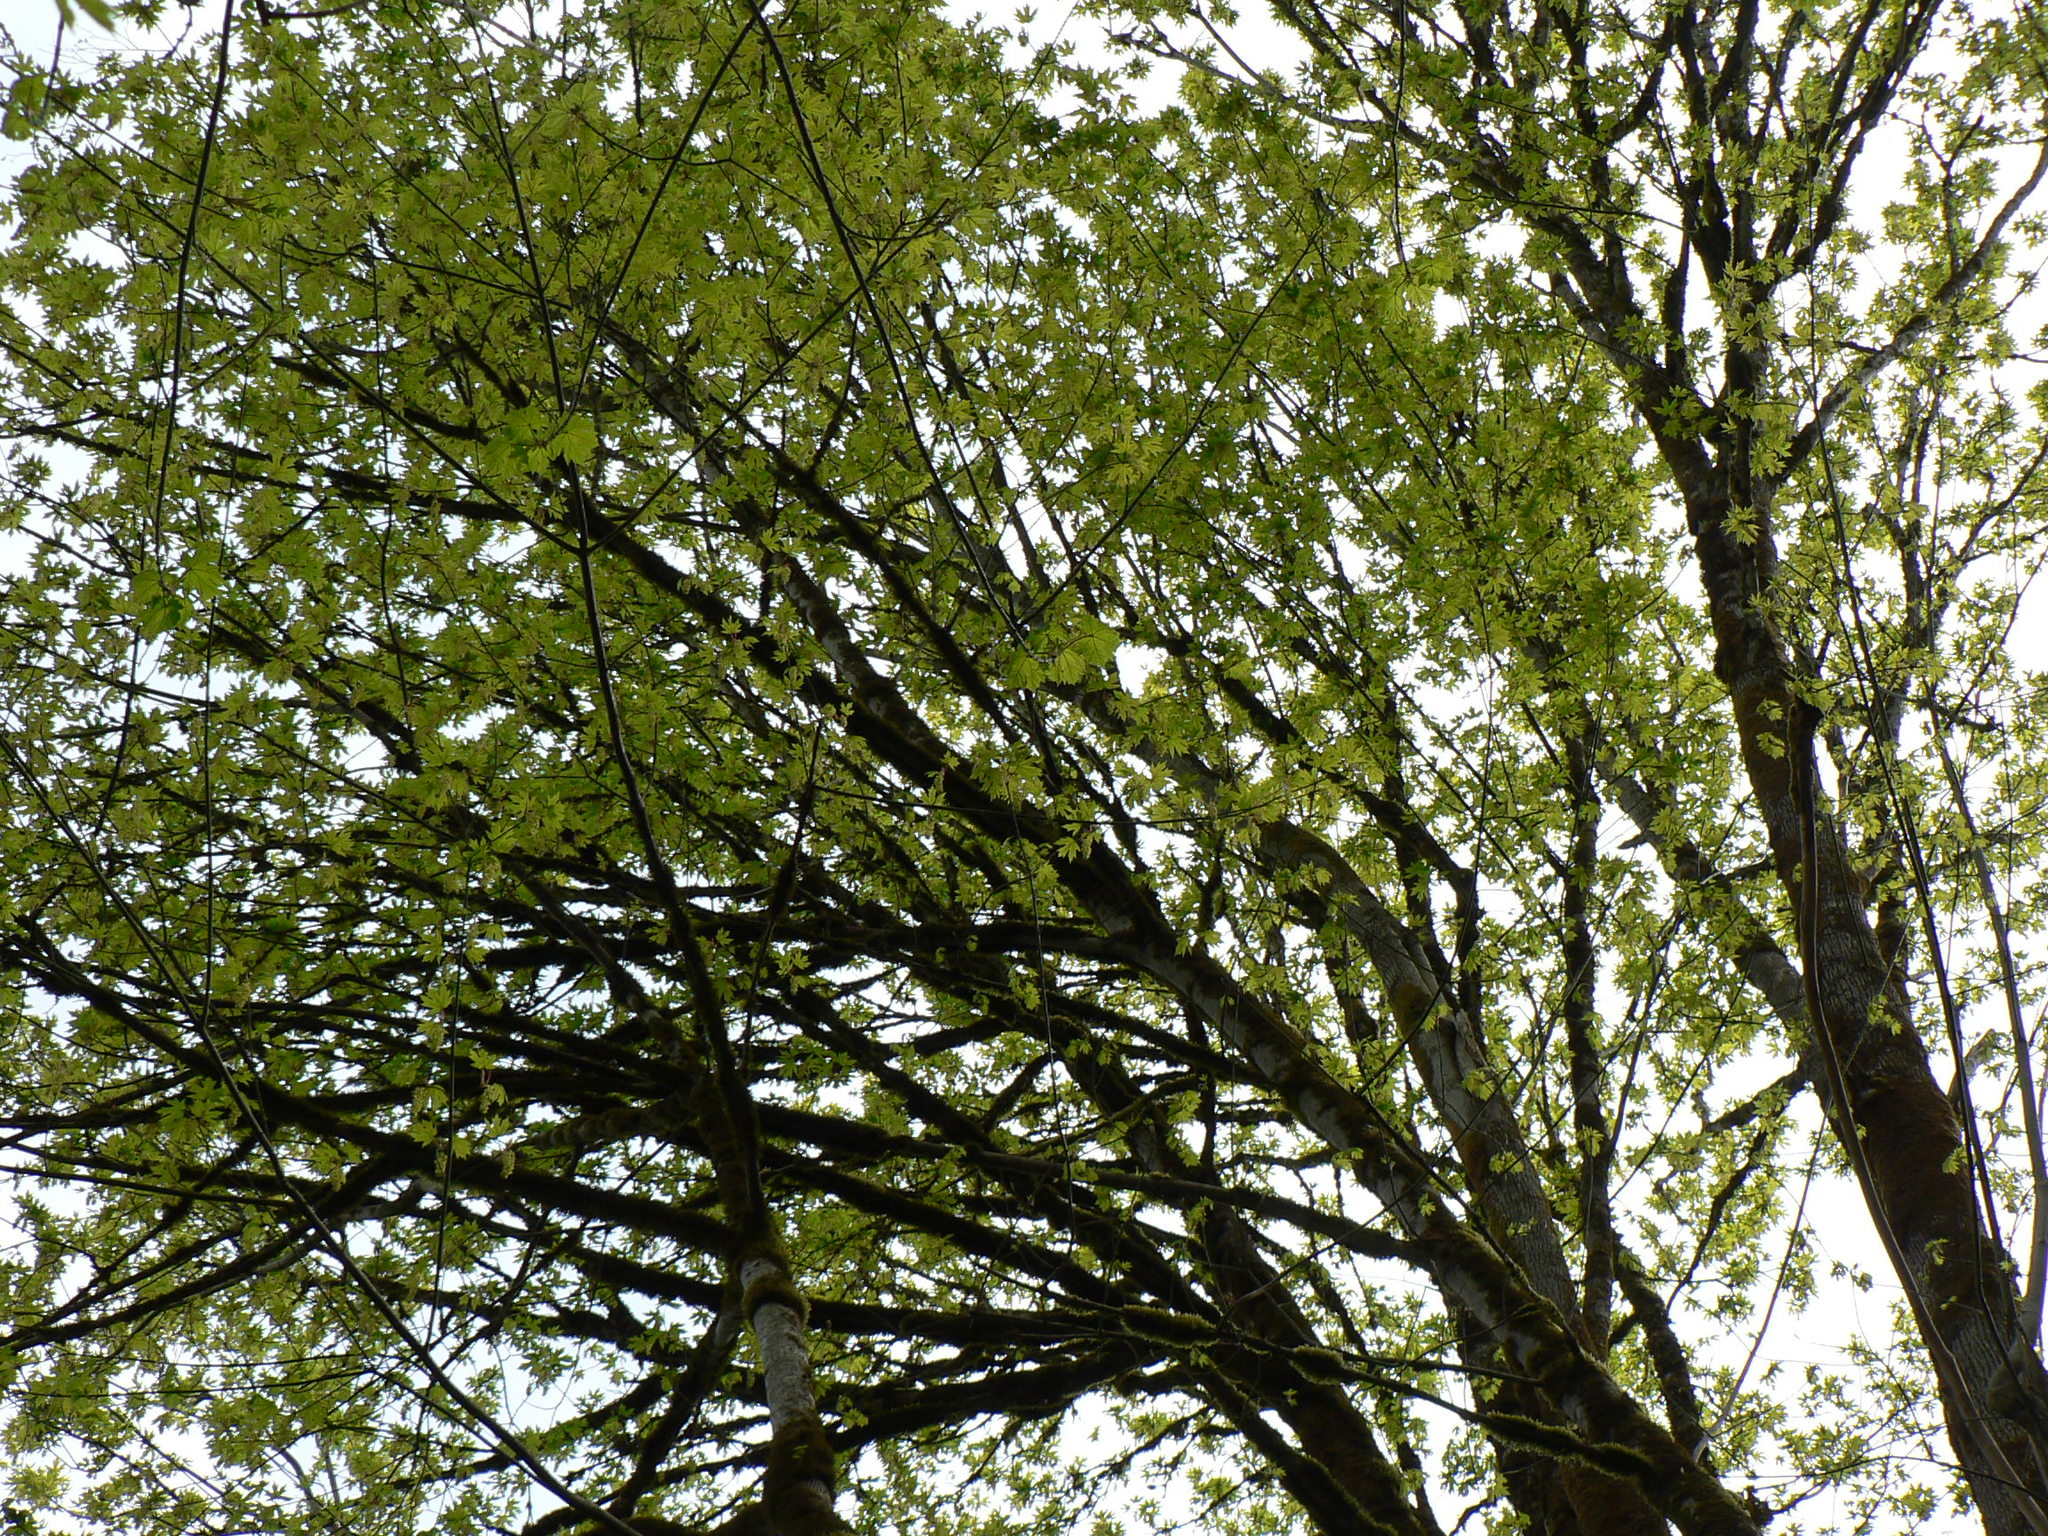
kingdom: Plantae
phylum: Tracheophyta
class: Magnoliopsida
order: Sapindales
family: Sapindaceae
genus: Acer
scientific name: Acer macrophyllum
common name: Oregon maple
